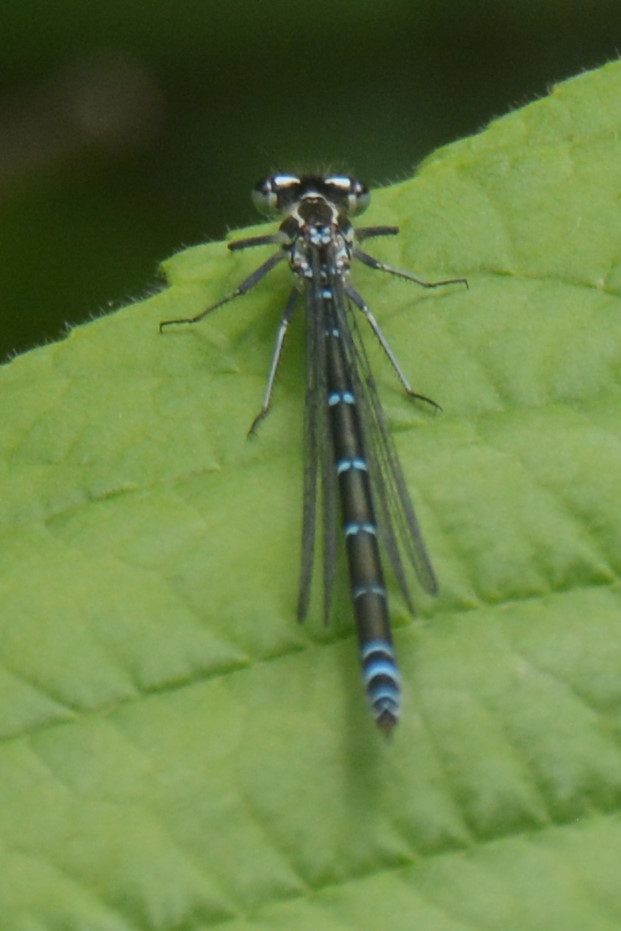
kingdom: Animalia
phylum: Arthropoda
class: Insecta
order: Odonata
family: Coenagrionidae
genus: Coenagrion
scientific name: Coenagrion puella
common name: Azure damselfly
